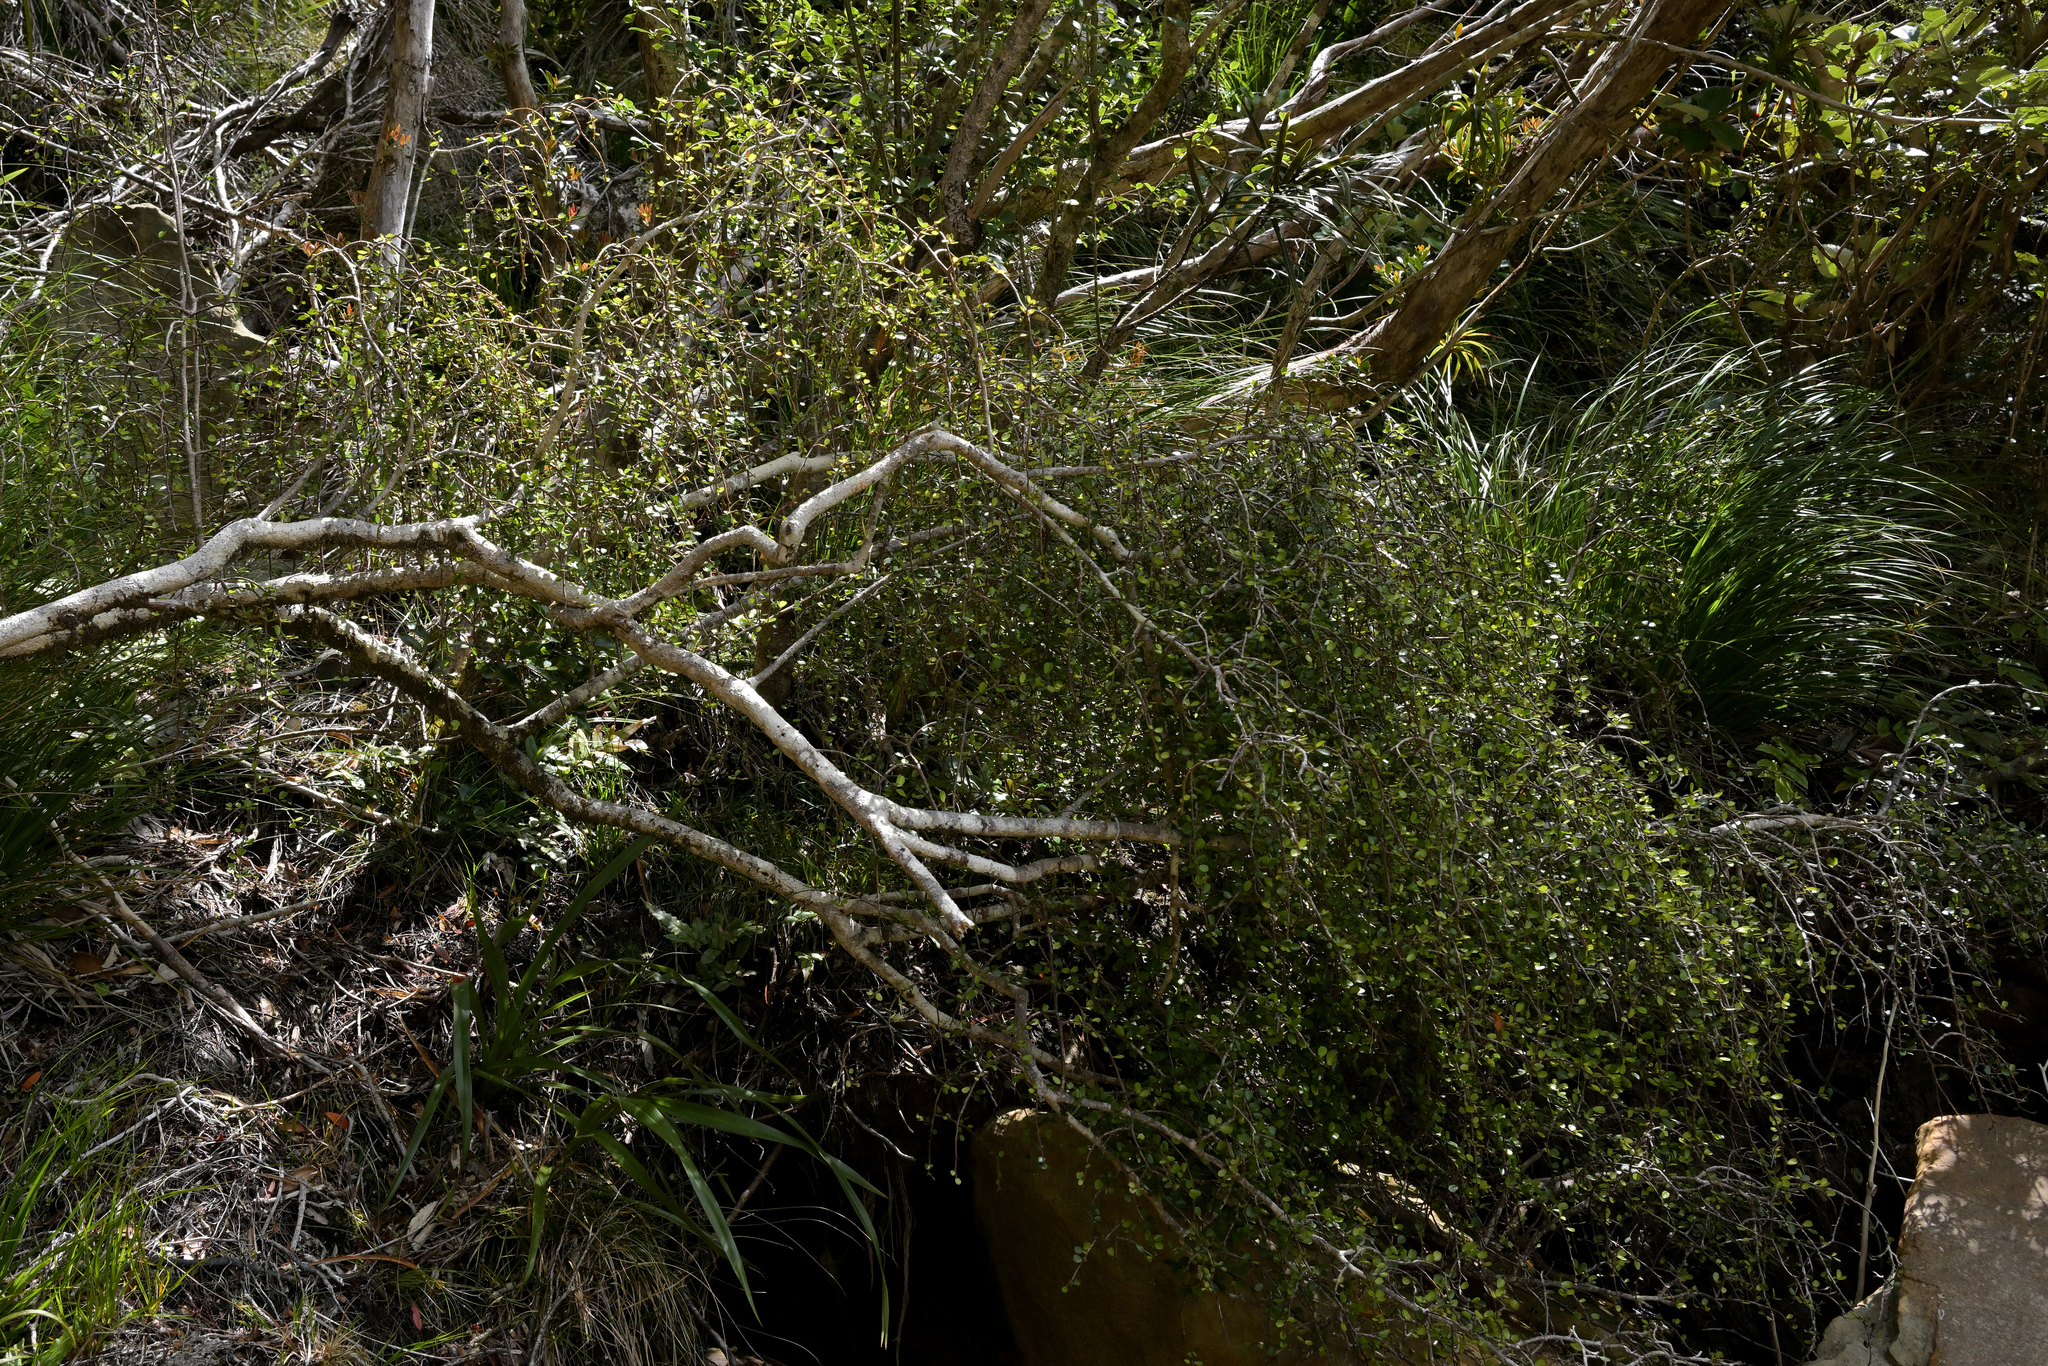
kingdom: Plantae
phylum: Tracheophyta
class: Magnoliopsida
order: Ericales
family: Primulaceae
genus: Myrsine
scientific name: Myrsine divaricata
